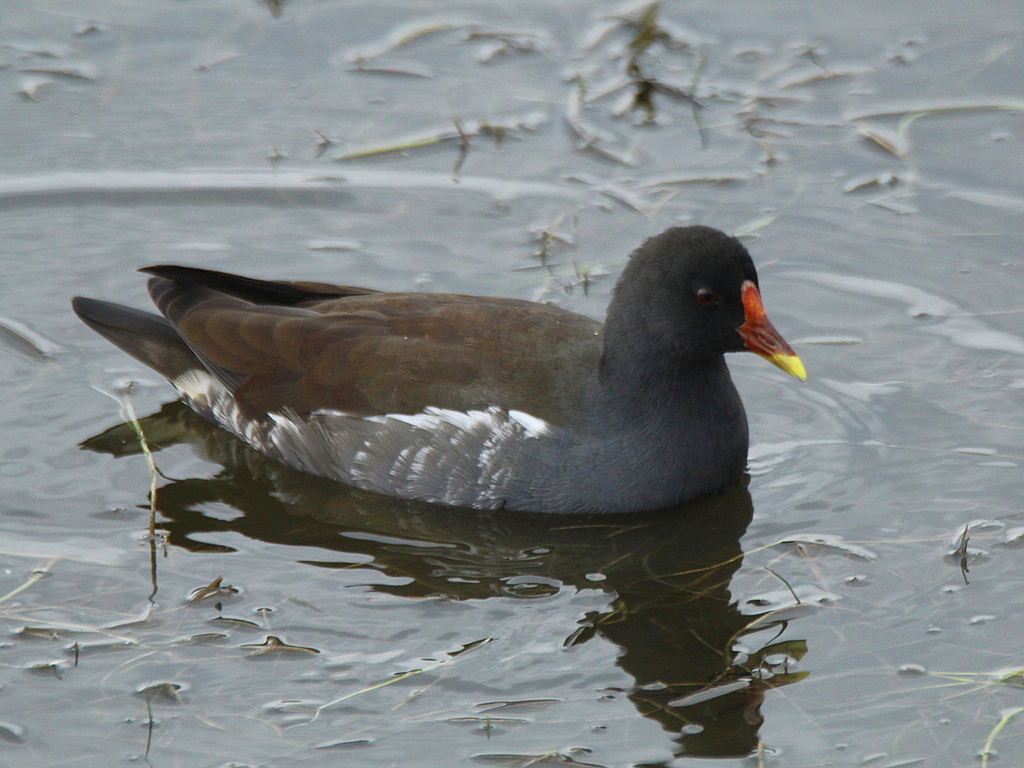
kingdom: Animalia
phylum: Chordata
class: Aves
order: Gruiformes
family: Rallidae
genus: Gallinula
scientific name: Gallinula chloropus
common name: Common moorhen
